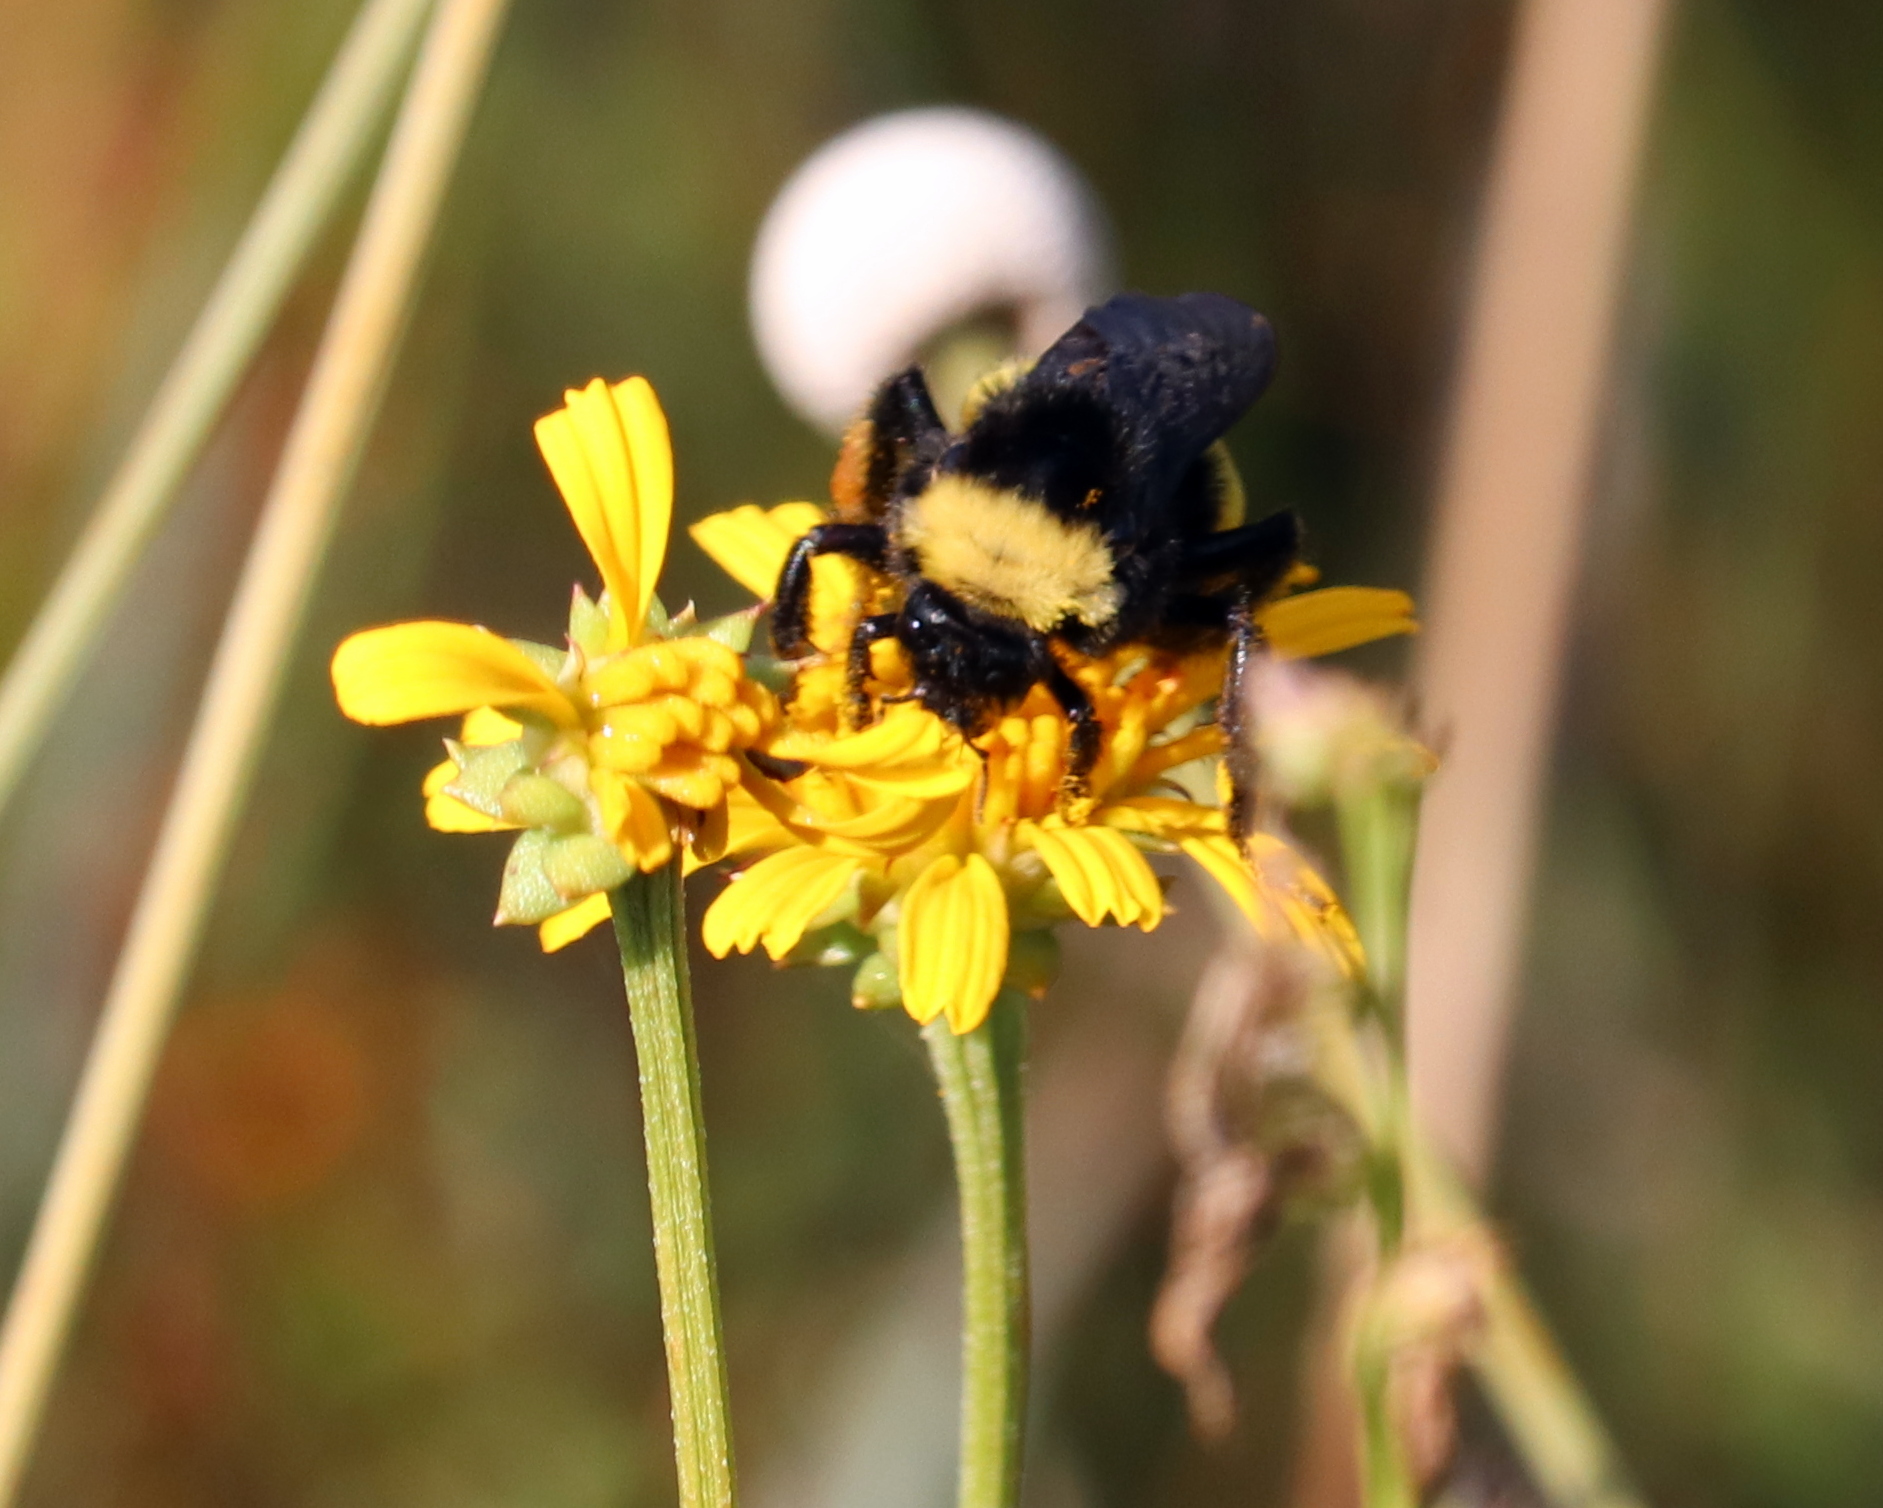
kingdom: Animalia
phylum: Arthropoda
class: Insecta
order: Hymenoptera
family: Apidae
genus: Bombus
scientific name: Bombus pensylvanicus
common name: Bumble bee
